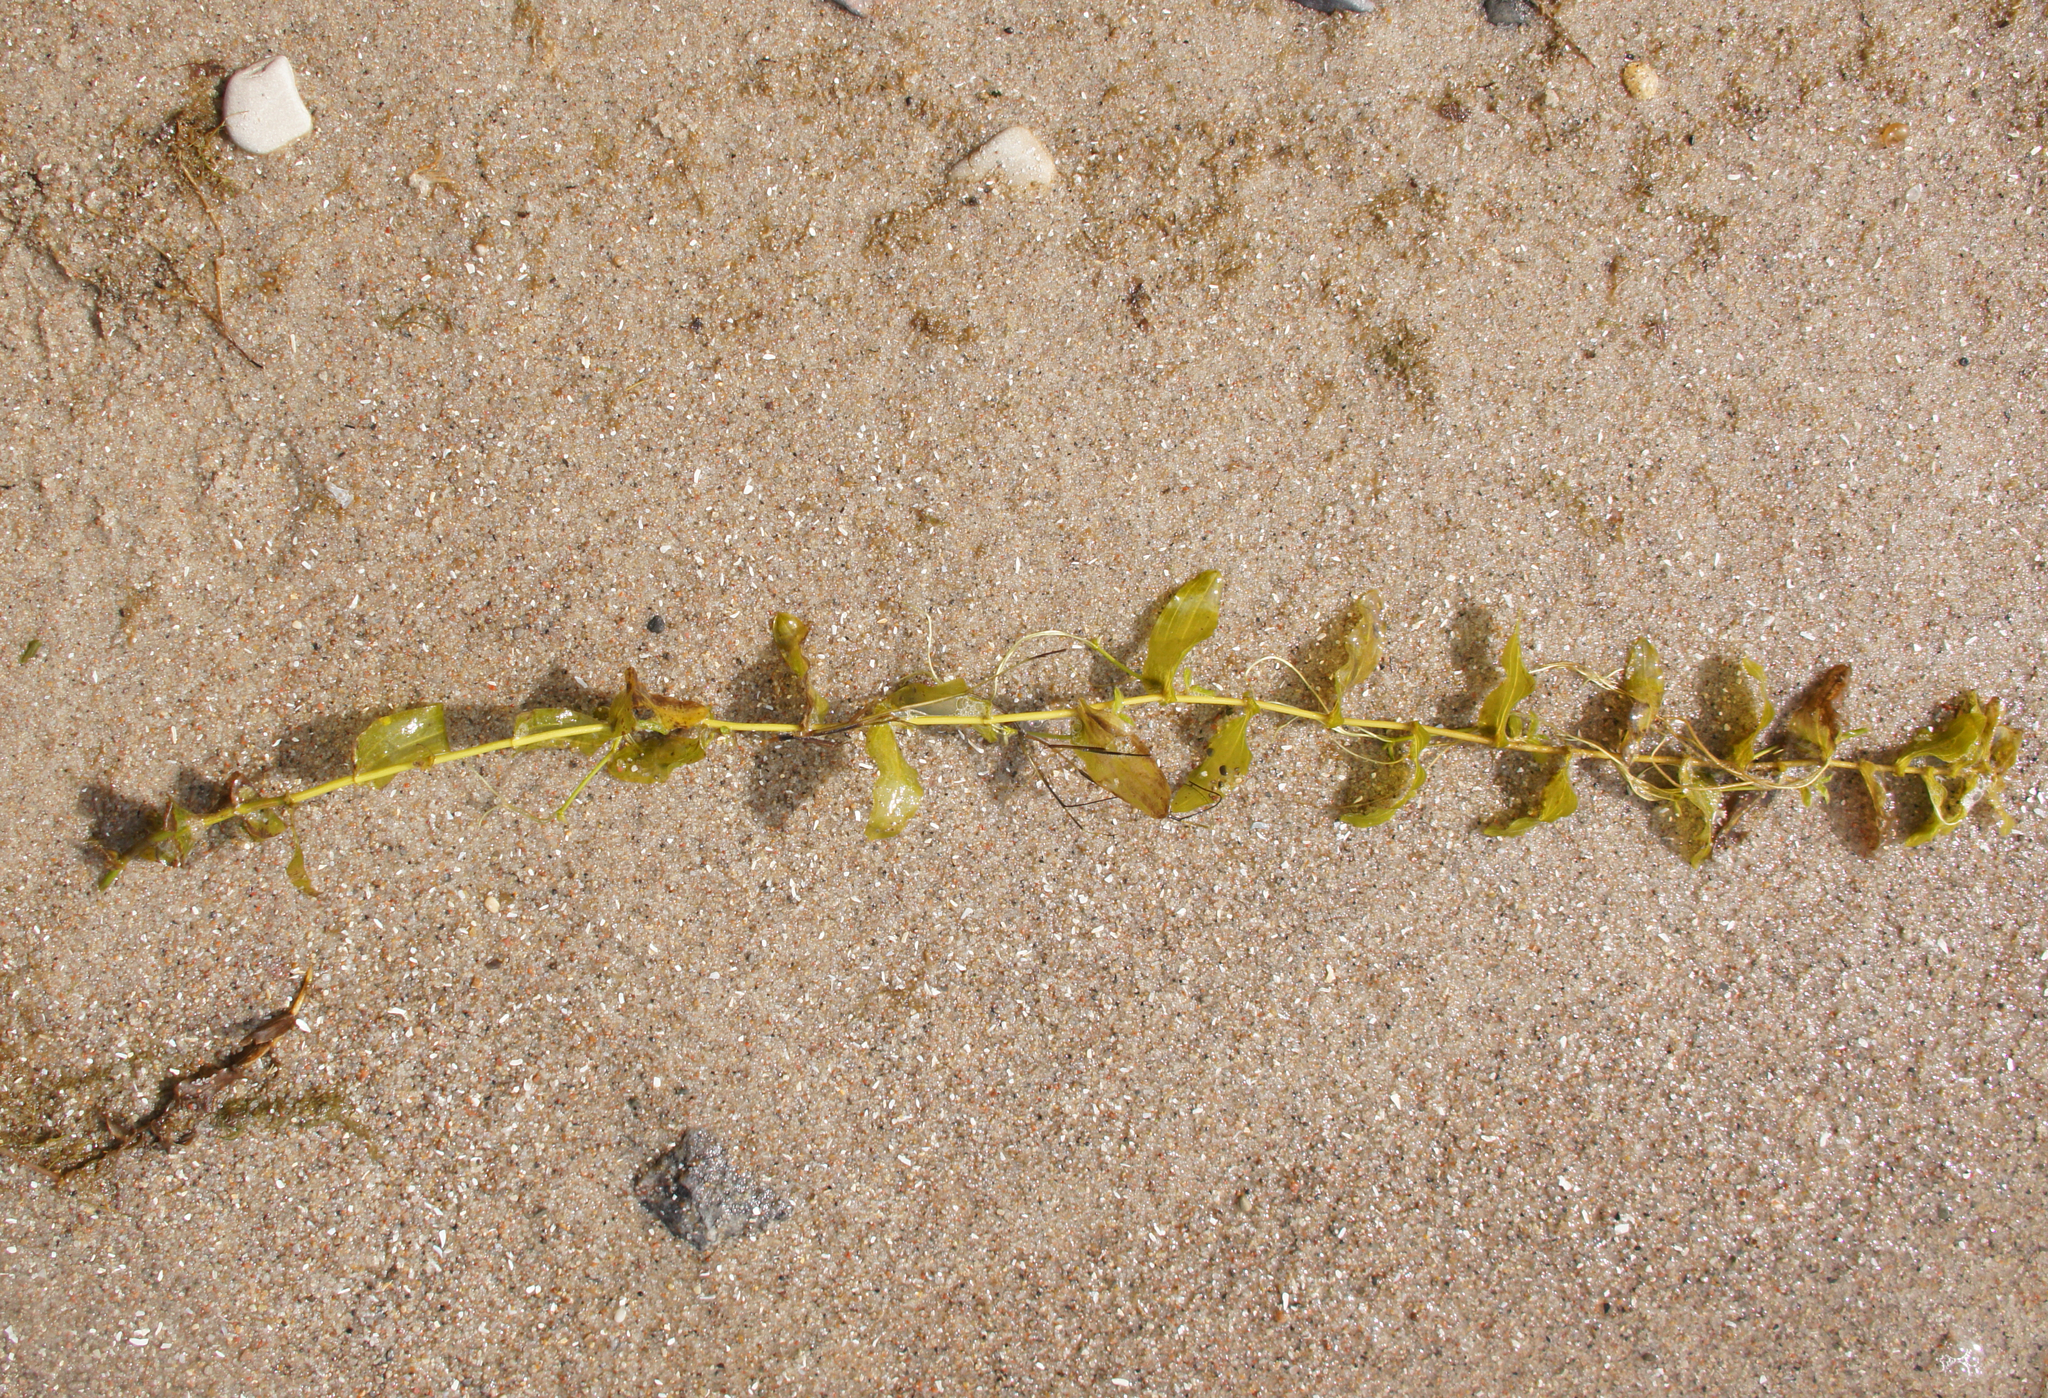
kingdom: Plantae
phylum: Tracheophyta
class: Liliopsida
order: Alismatales
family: Potamogetonaceae
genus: Potamogeton
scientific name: Potamogeton perfoliatus
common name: Perfoliate pondweed
